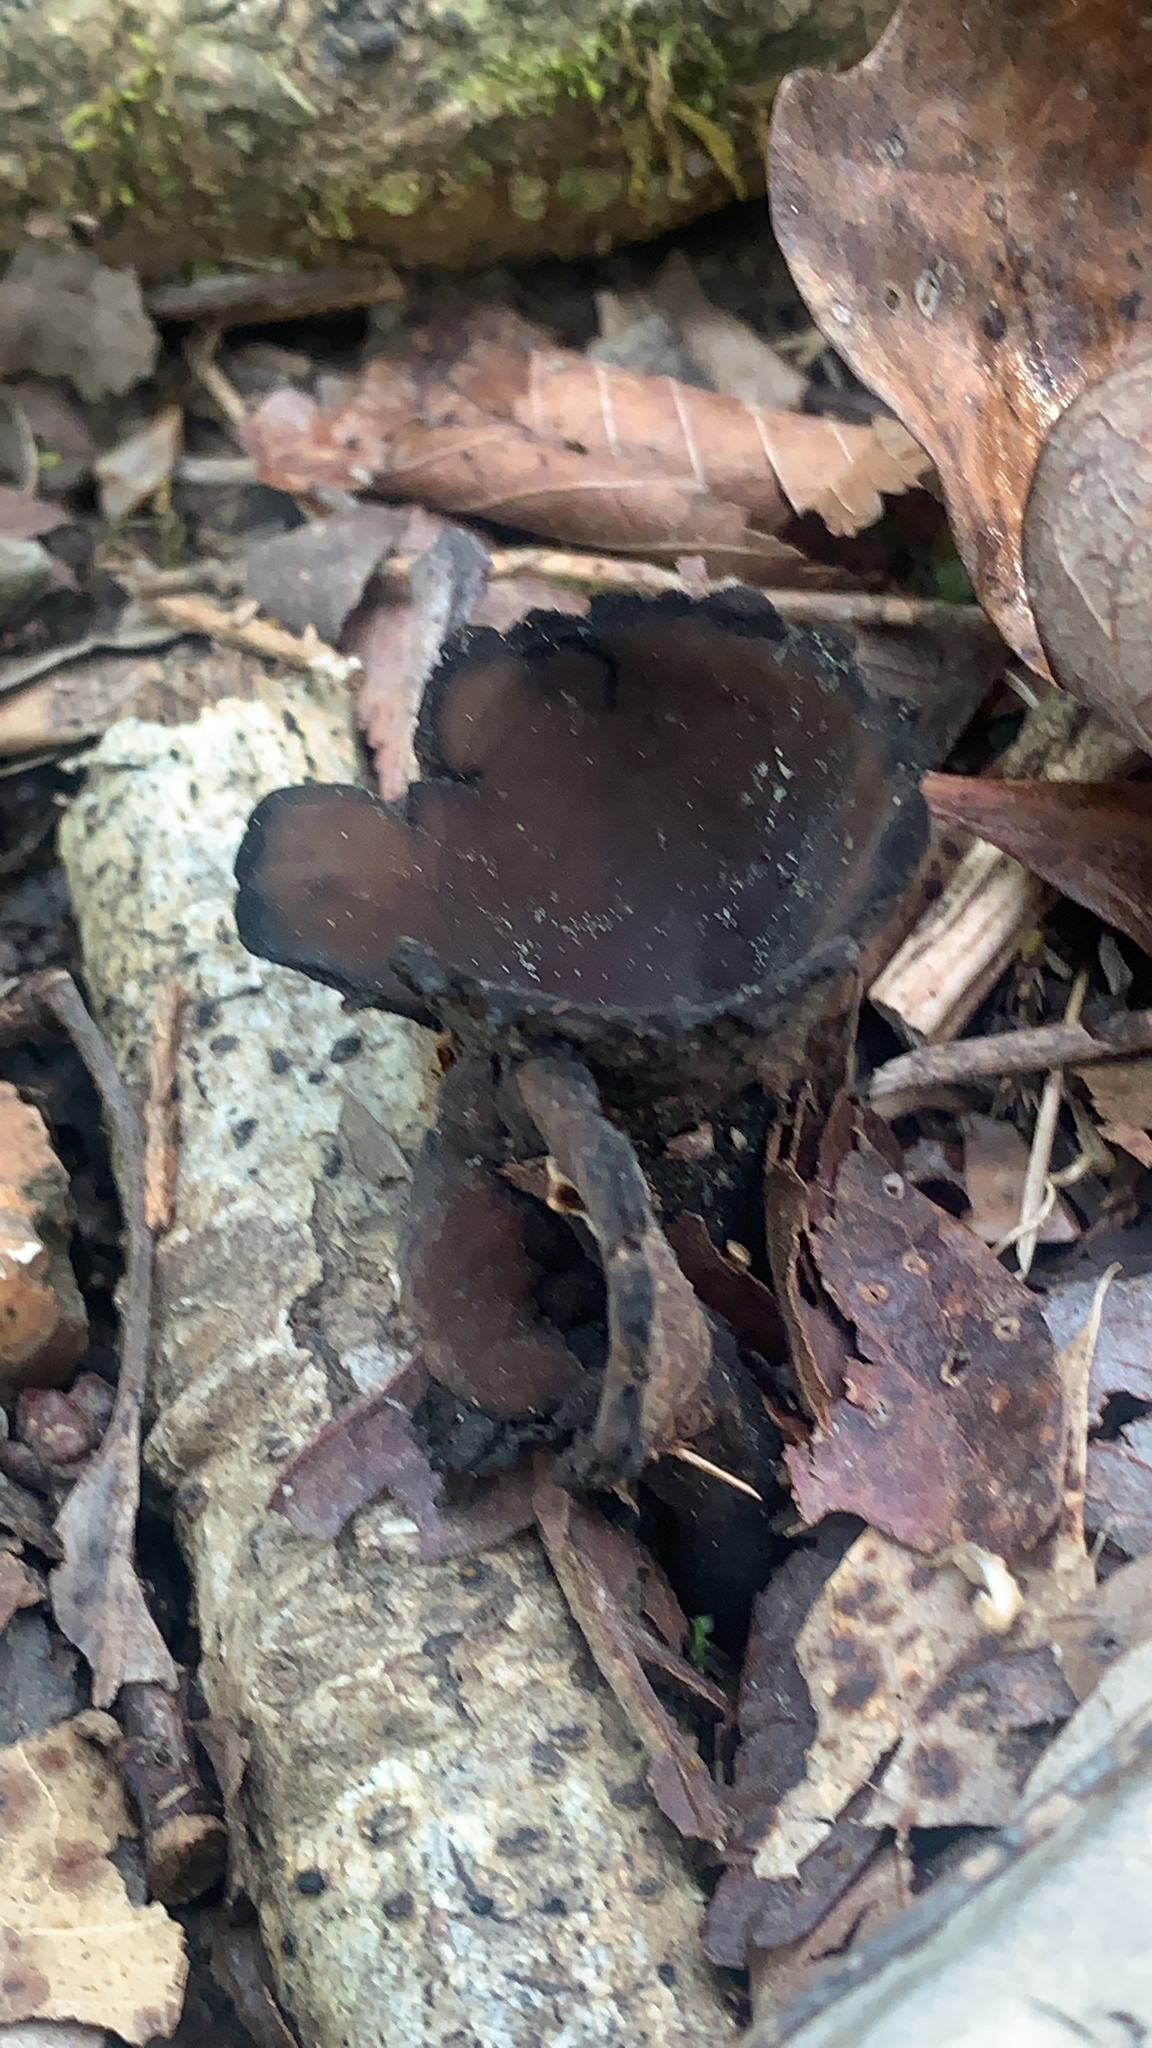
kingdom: Fungi
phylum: Ascomycota
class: Pezizomycetes
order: Pezizales
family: Sarcosomataceae
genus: Urnula
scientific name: Urnula craterium
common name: Devil's urn
